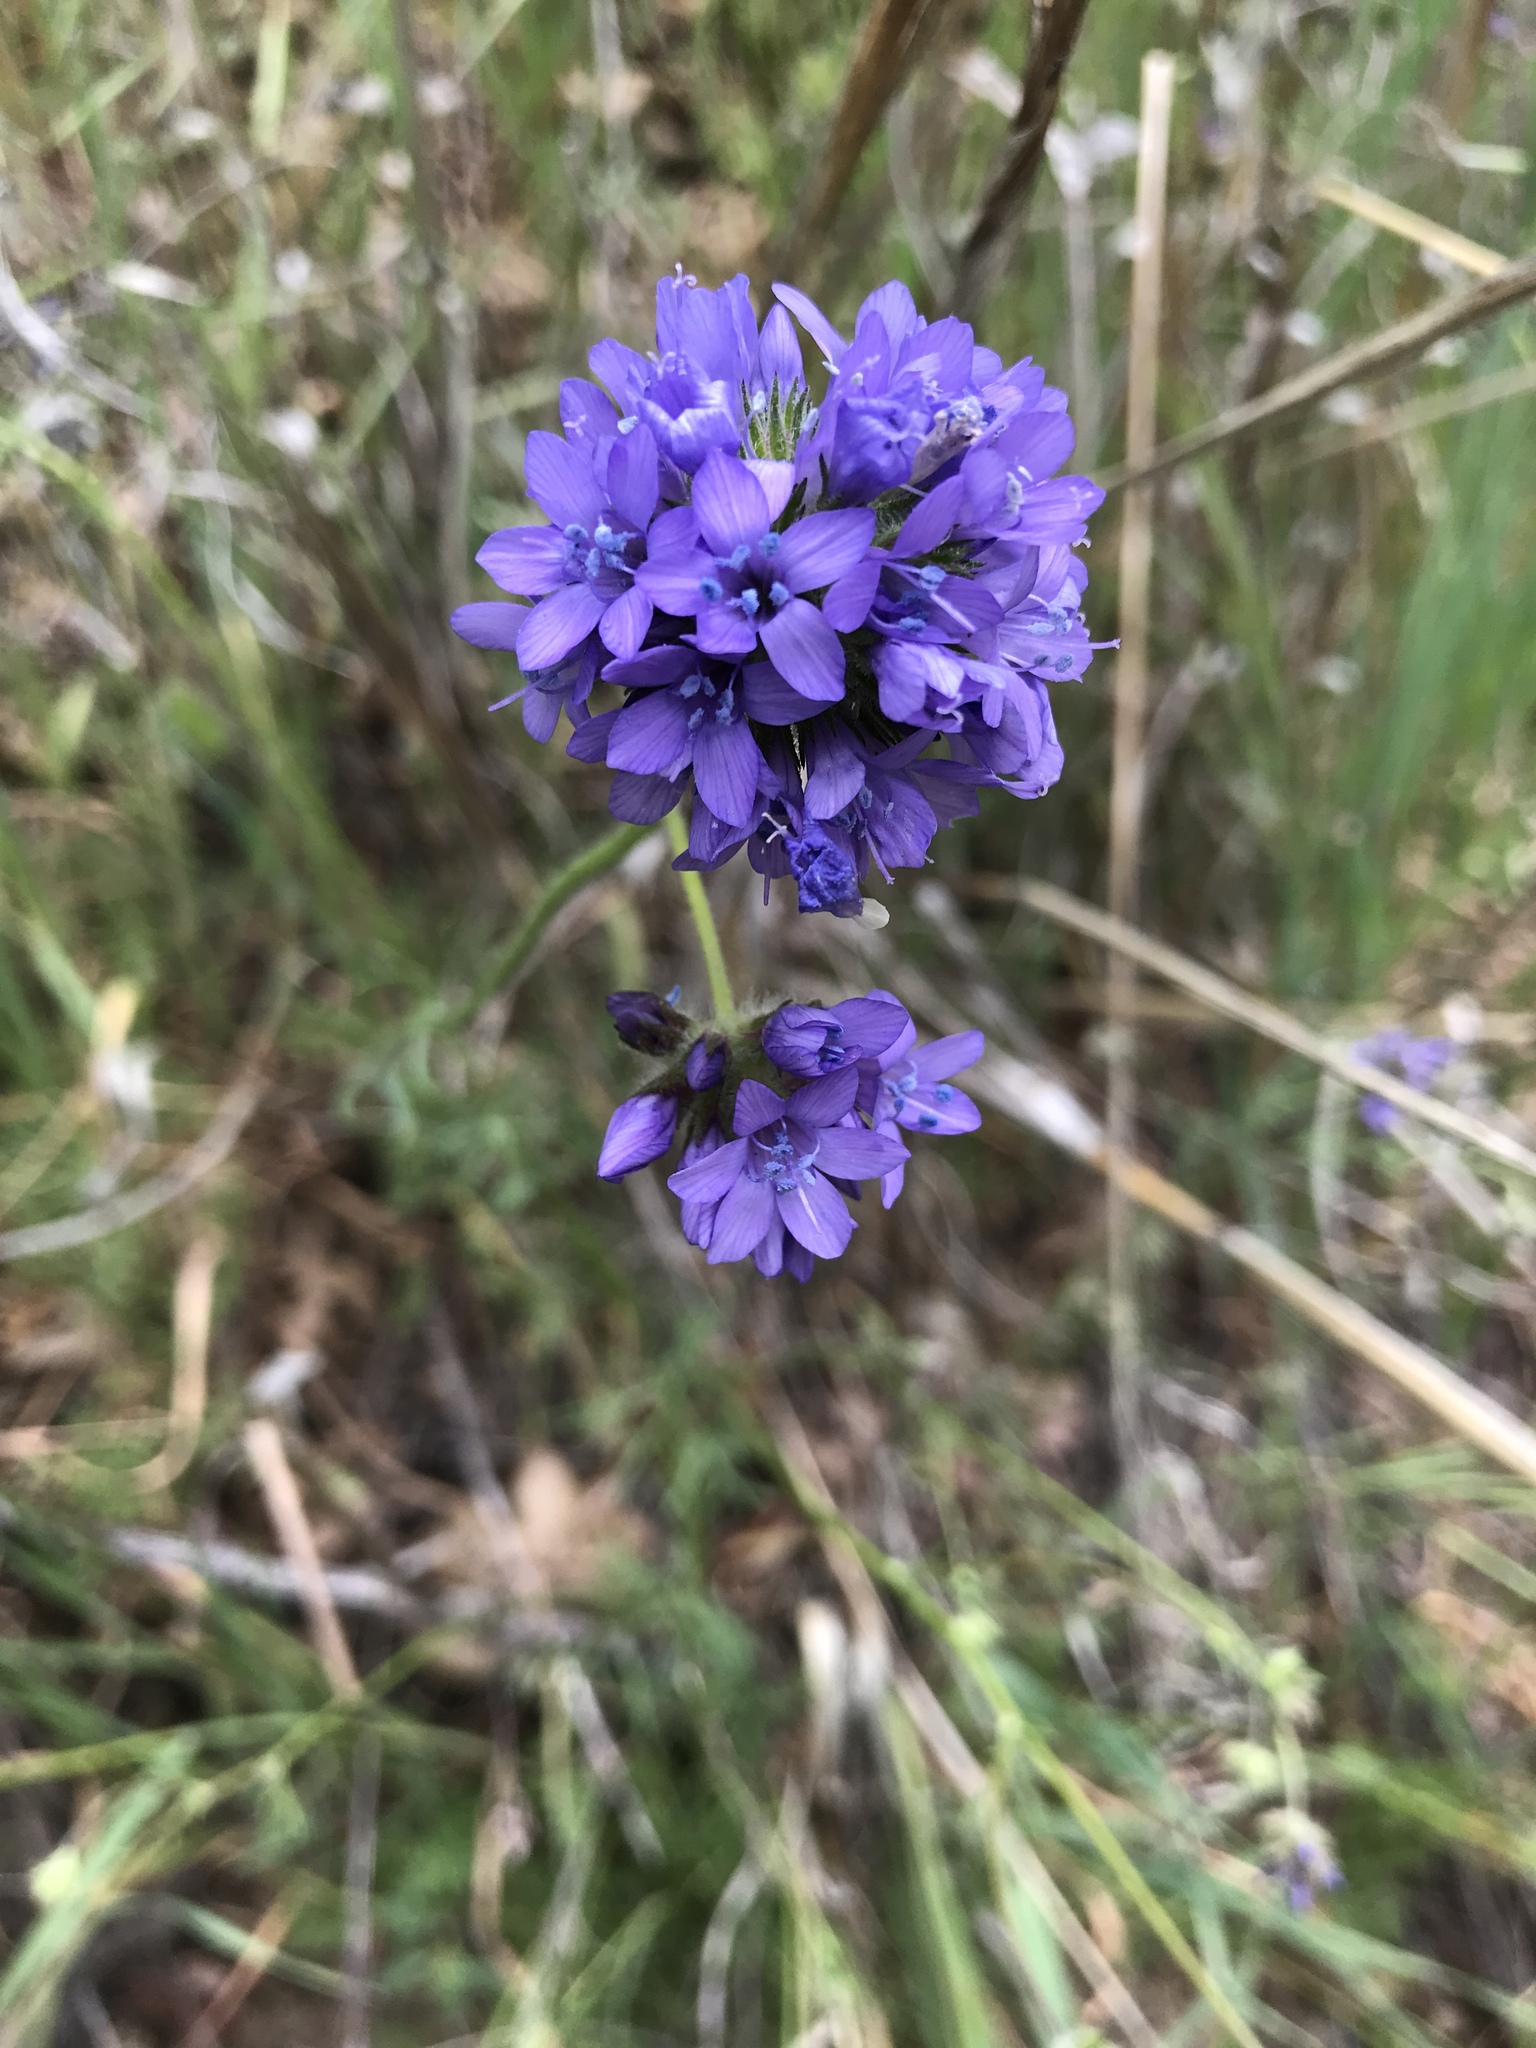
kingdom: Plantae
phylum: Tracheophyta
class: Magnoliopsida
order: Ericales
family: Polemoniaceae
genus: Gilia
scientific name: Gilia capitata
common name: Bluehead gilia
